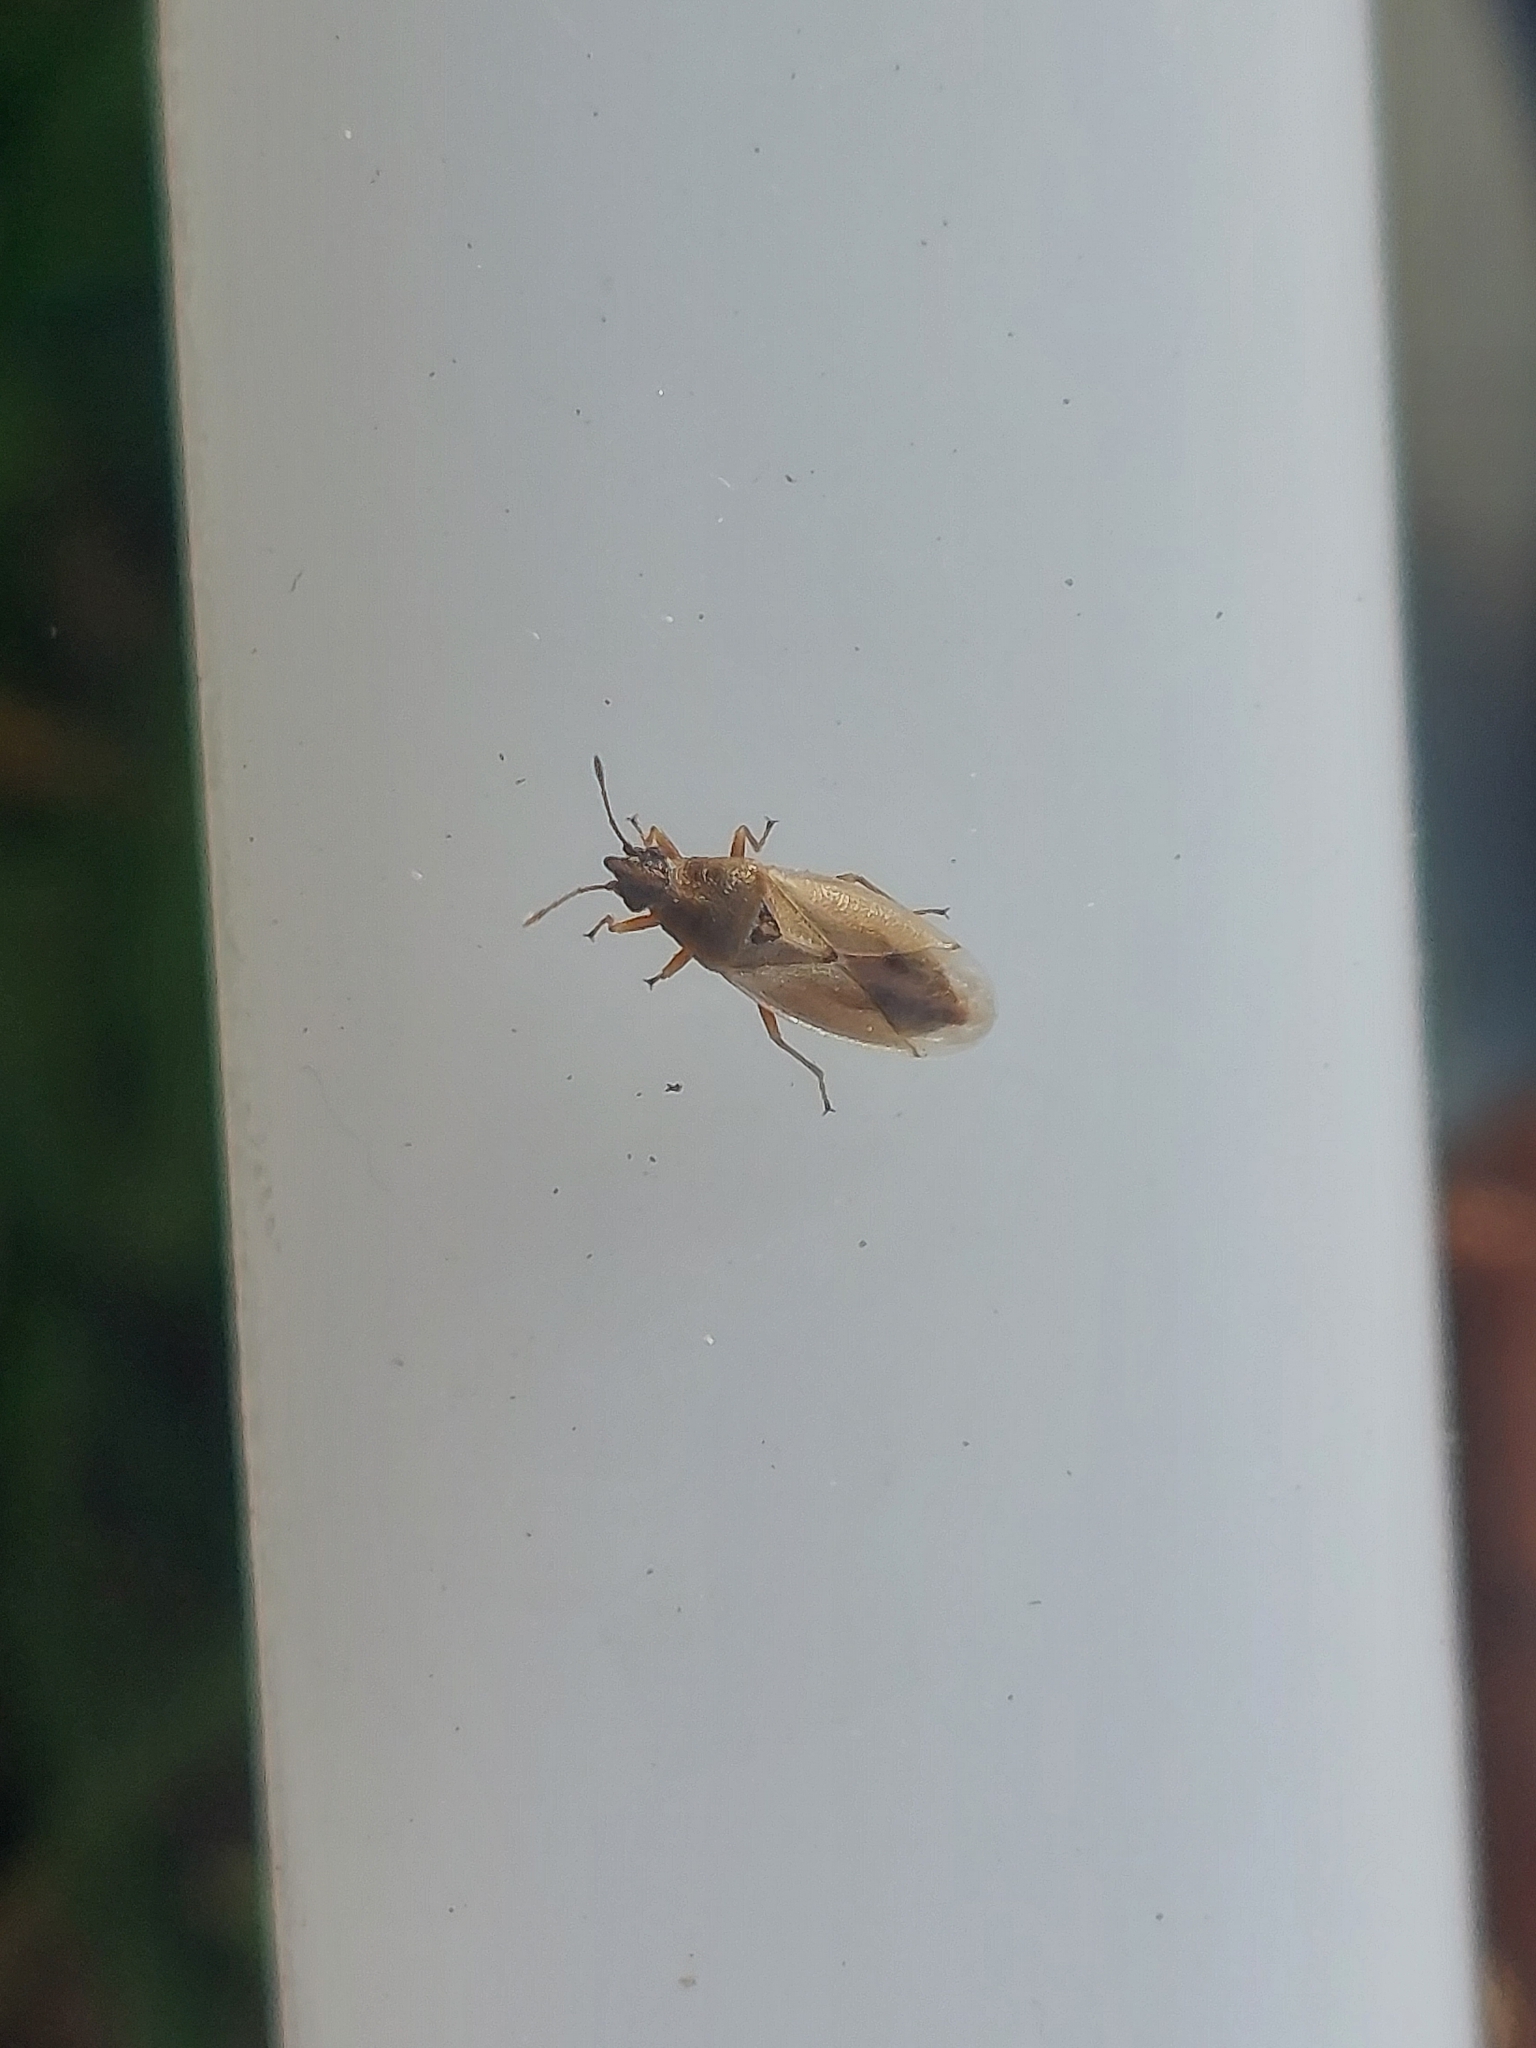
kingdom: Animalia
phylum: Arthropoda
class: Insecta
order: Hemiptera
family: Cymidae
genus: Cymus
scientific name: Cymus glandicolor
